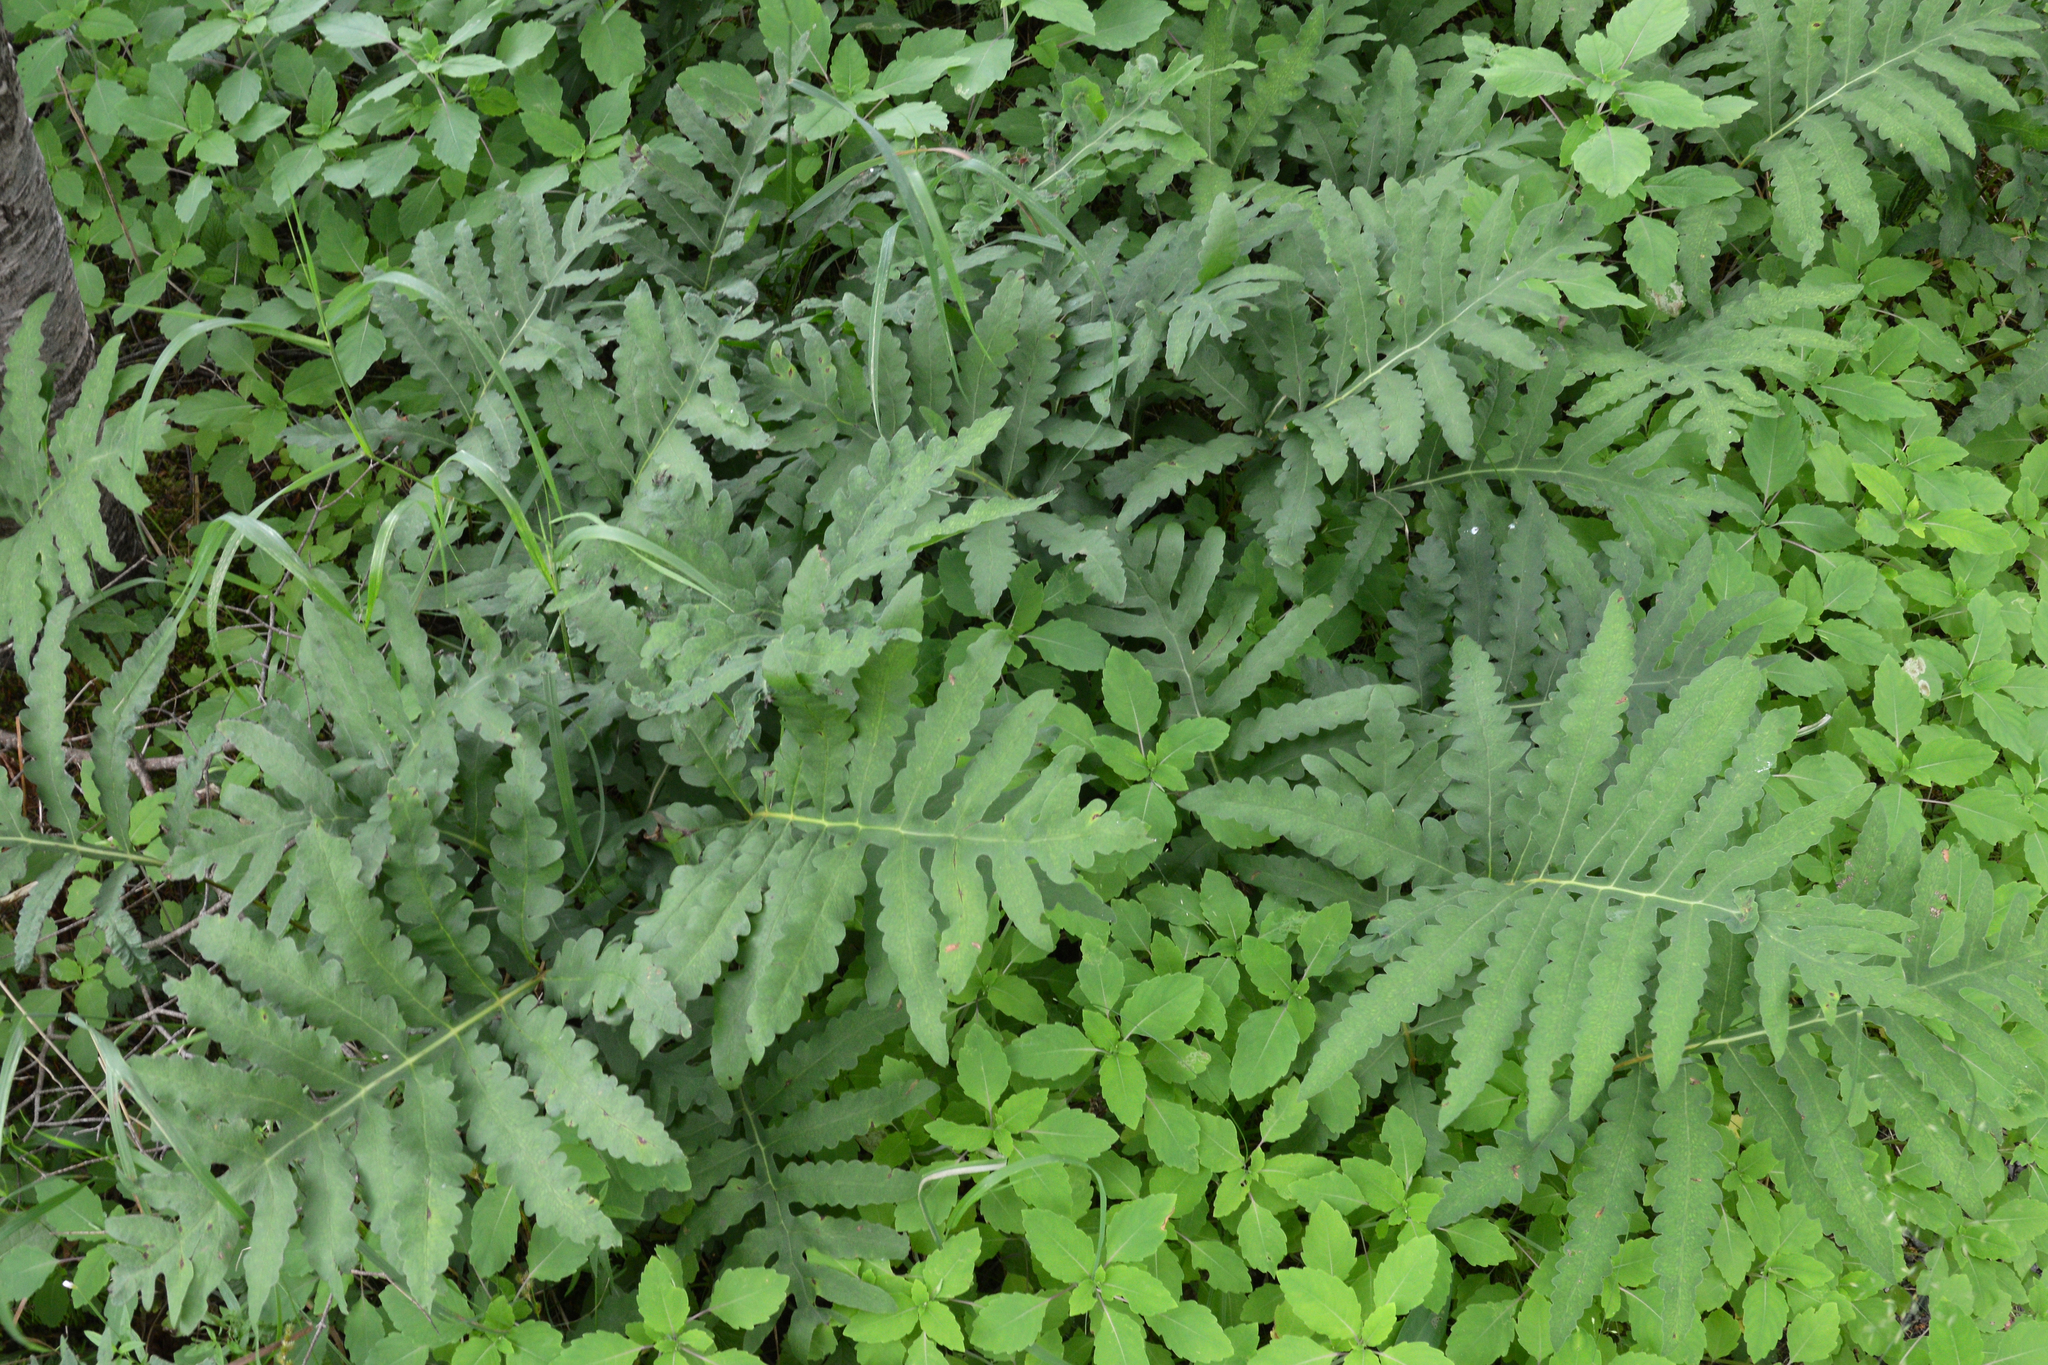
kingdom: Plantae
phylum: Tracheophyta
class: Polypodiopsida
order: Polypodiales
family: Onocleaceae
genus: Onoclea
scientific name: Onoclea sensibilis
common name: Sensitive fern
